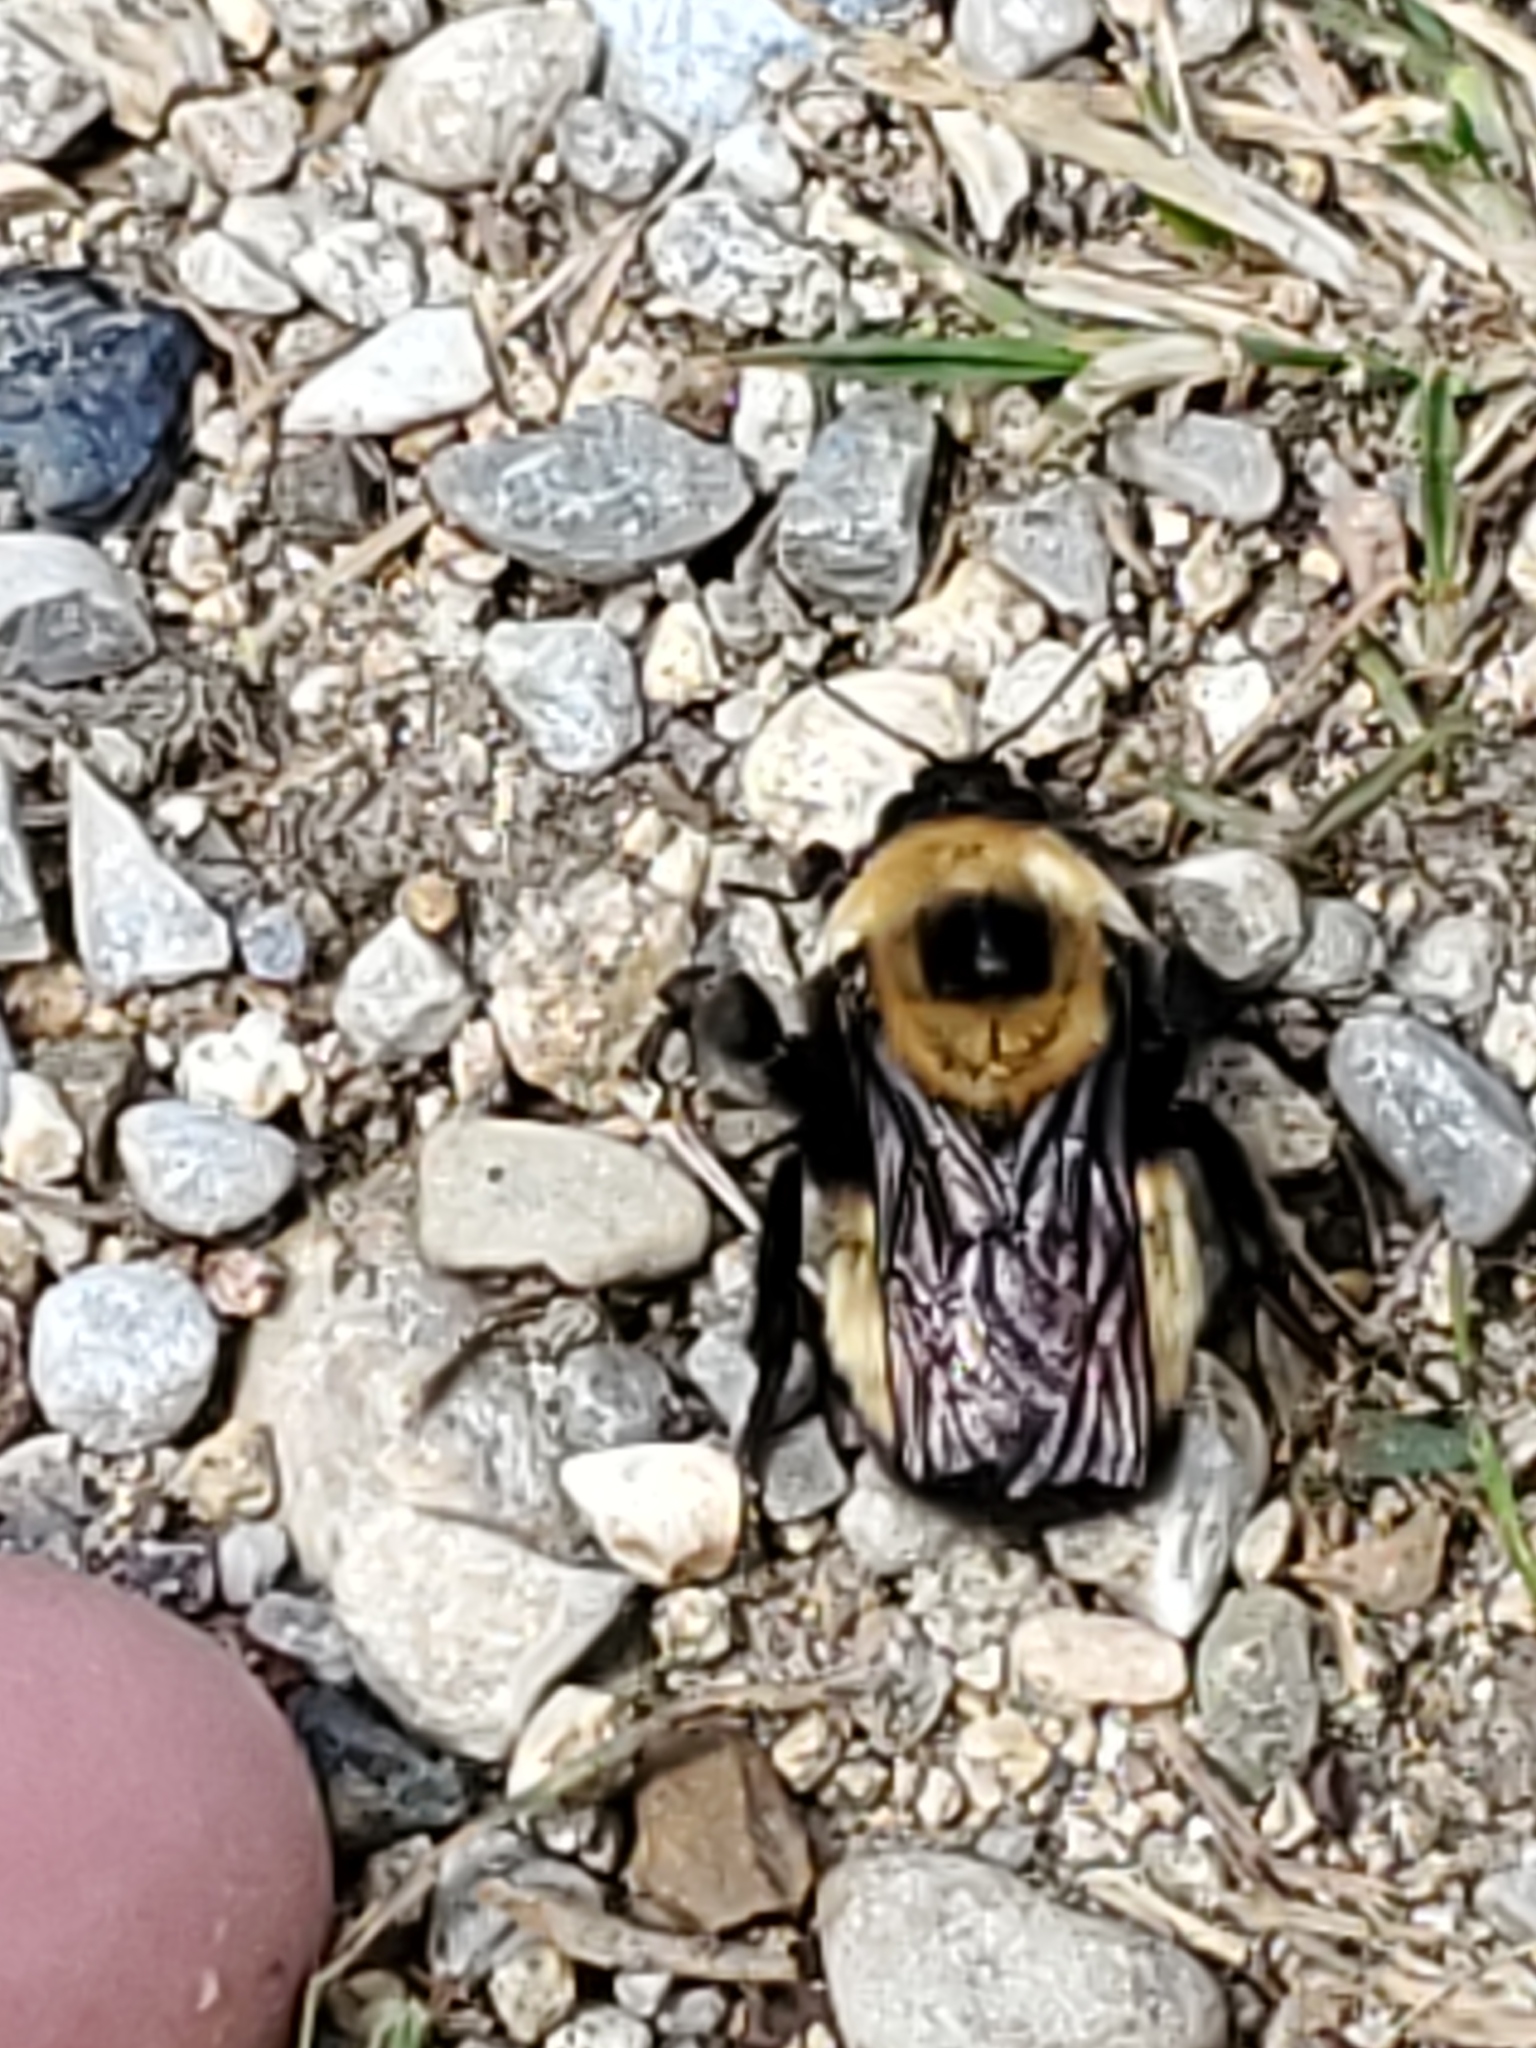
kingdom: Animalia
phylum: Arthropoda
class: Insecta
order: Hymenoptera
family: Apidae
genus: Bombus
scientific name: Bombus nevadensis
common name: Nevada bumble bee
